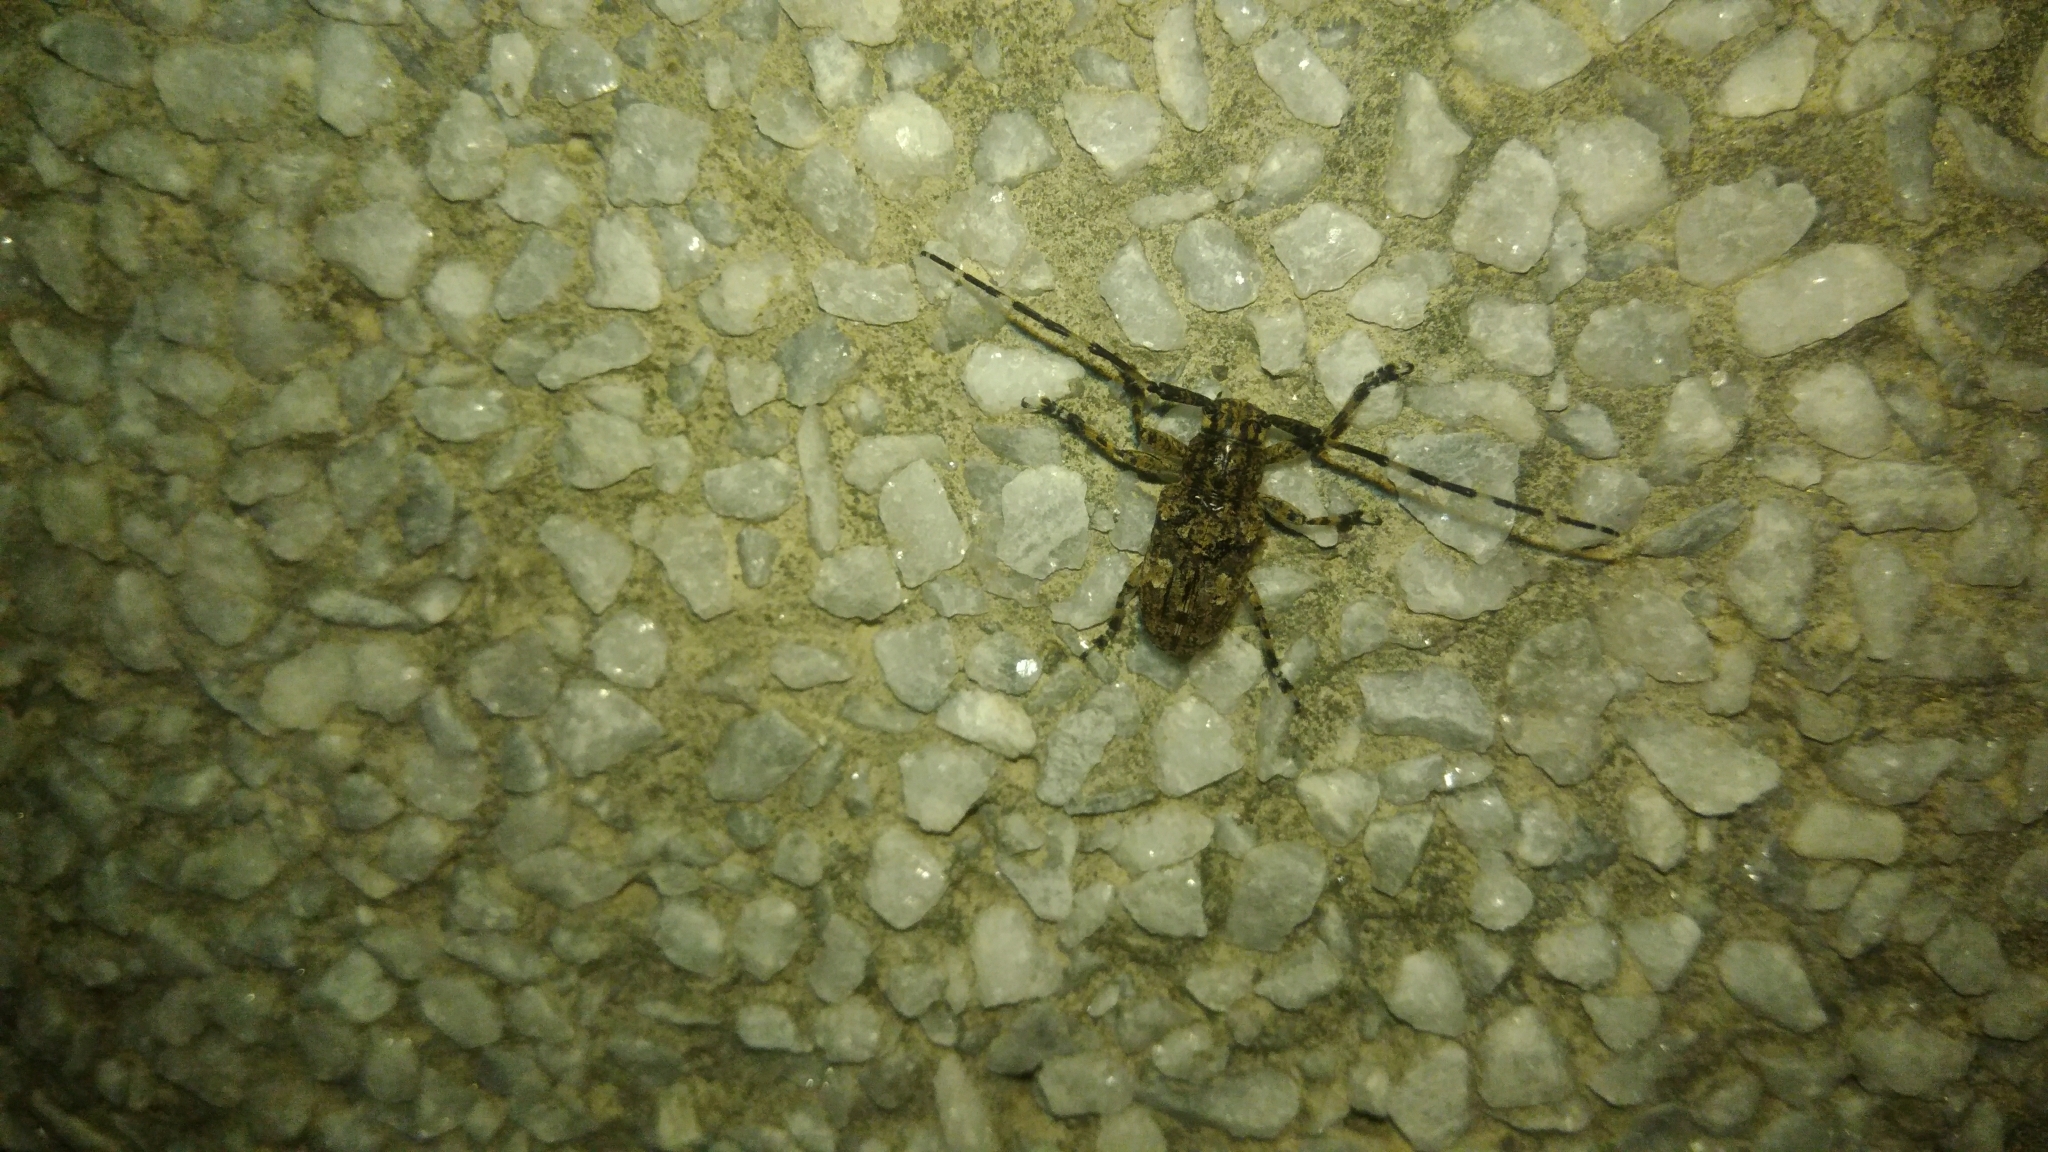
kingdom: Animalia
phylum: Arthropoda
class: Insecta
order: Coleoptera
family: Cerambycidae
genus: Agelasta
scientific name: Agelasta perplexa
